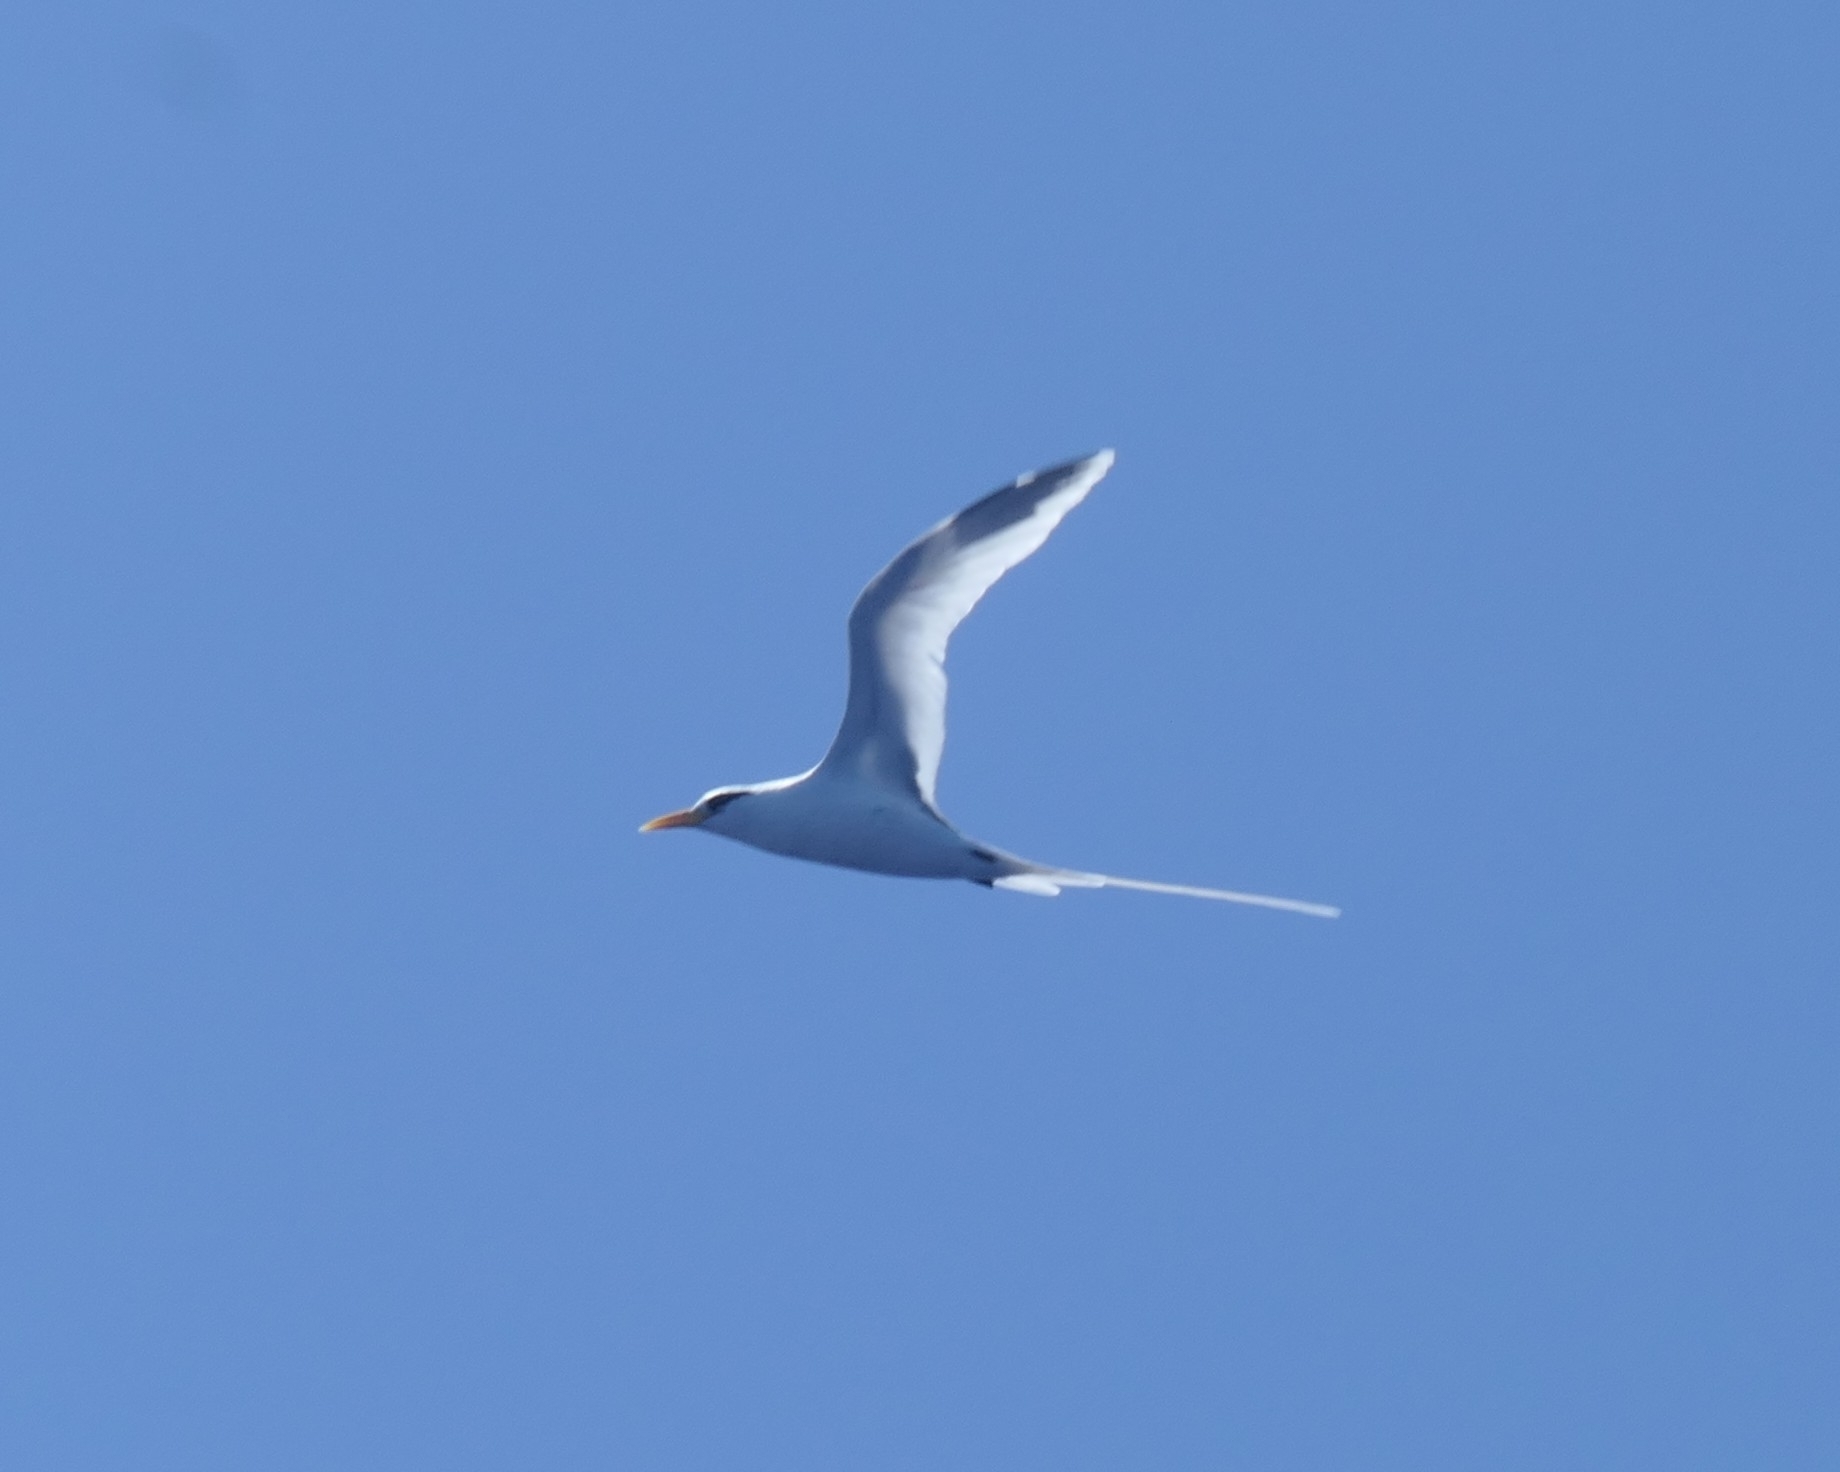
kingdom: Animalia
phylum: Chordata
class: Aves
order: Phaethontiformes
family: Phaethontidae
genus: Phaethon
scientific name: Phaethon lepturus
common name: White-tailed tropicbird
